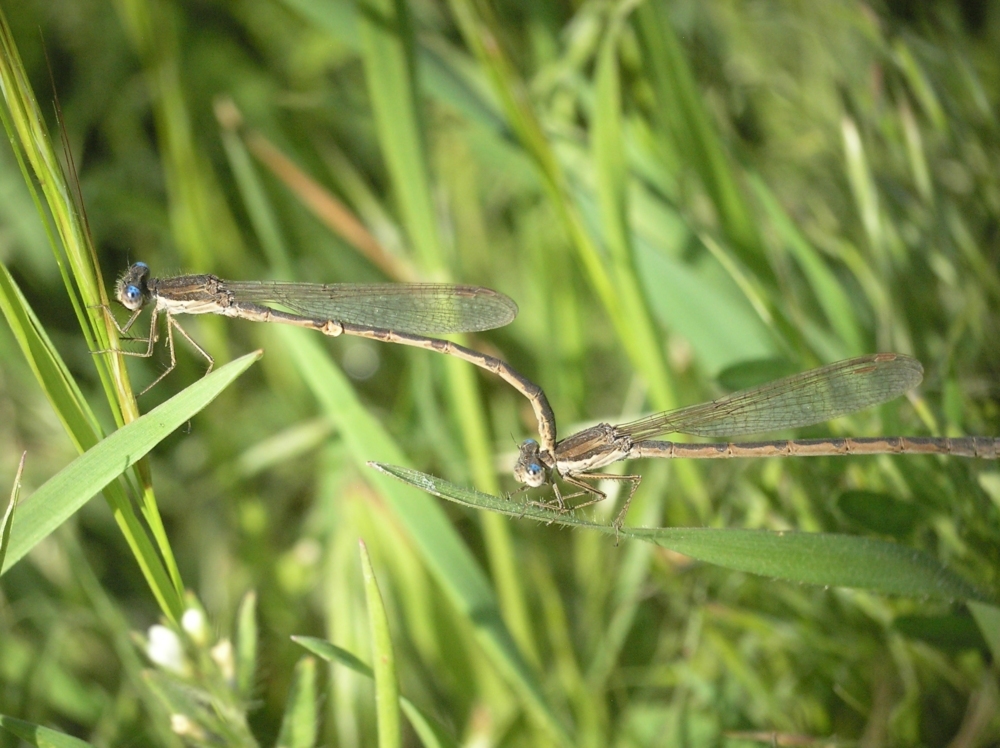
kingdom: Animalia
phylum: Arthropoda
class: Insecta
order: Odonata
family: Lestidae
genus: Sympecma
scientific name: Sympecma fusca
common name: Common winter damsel
